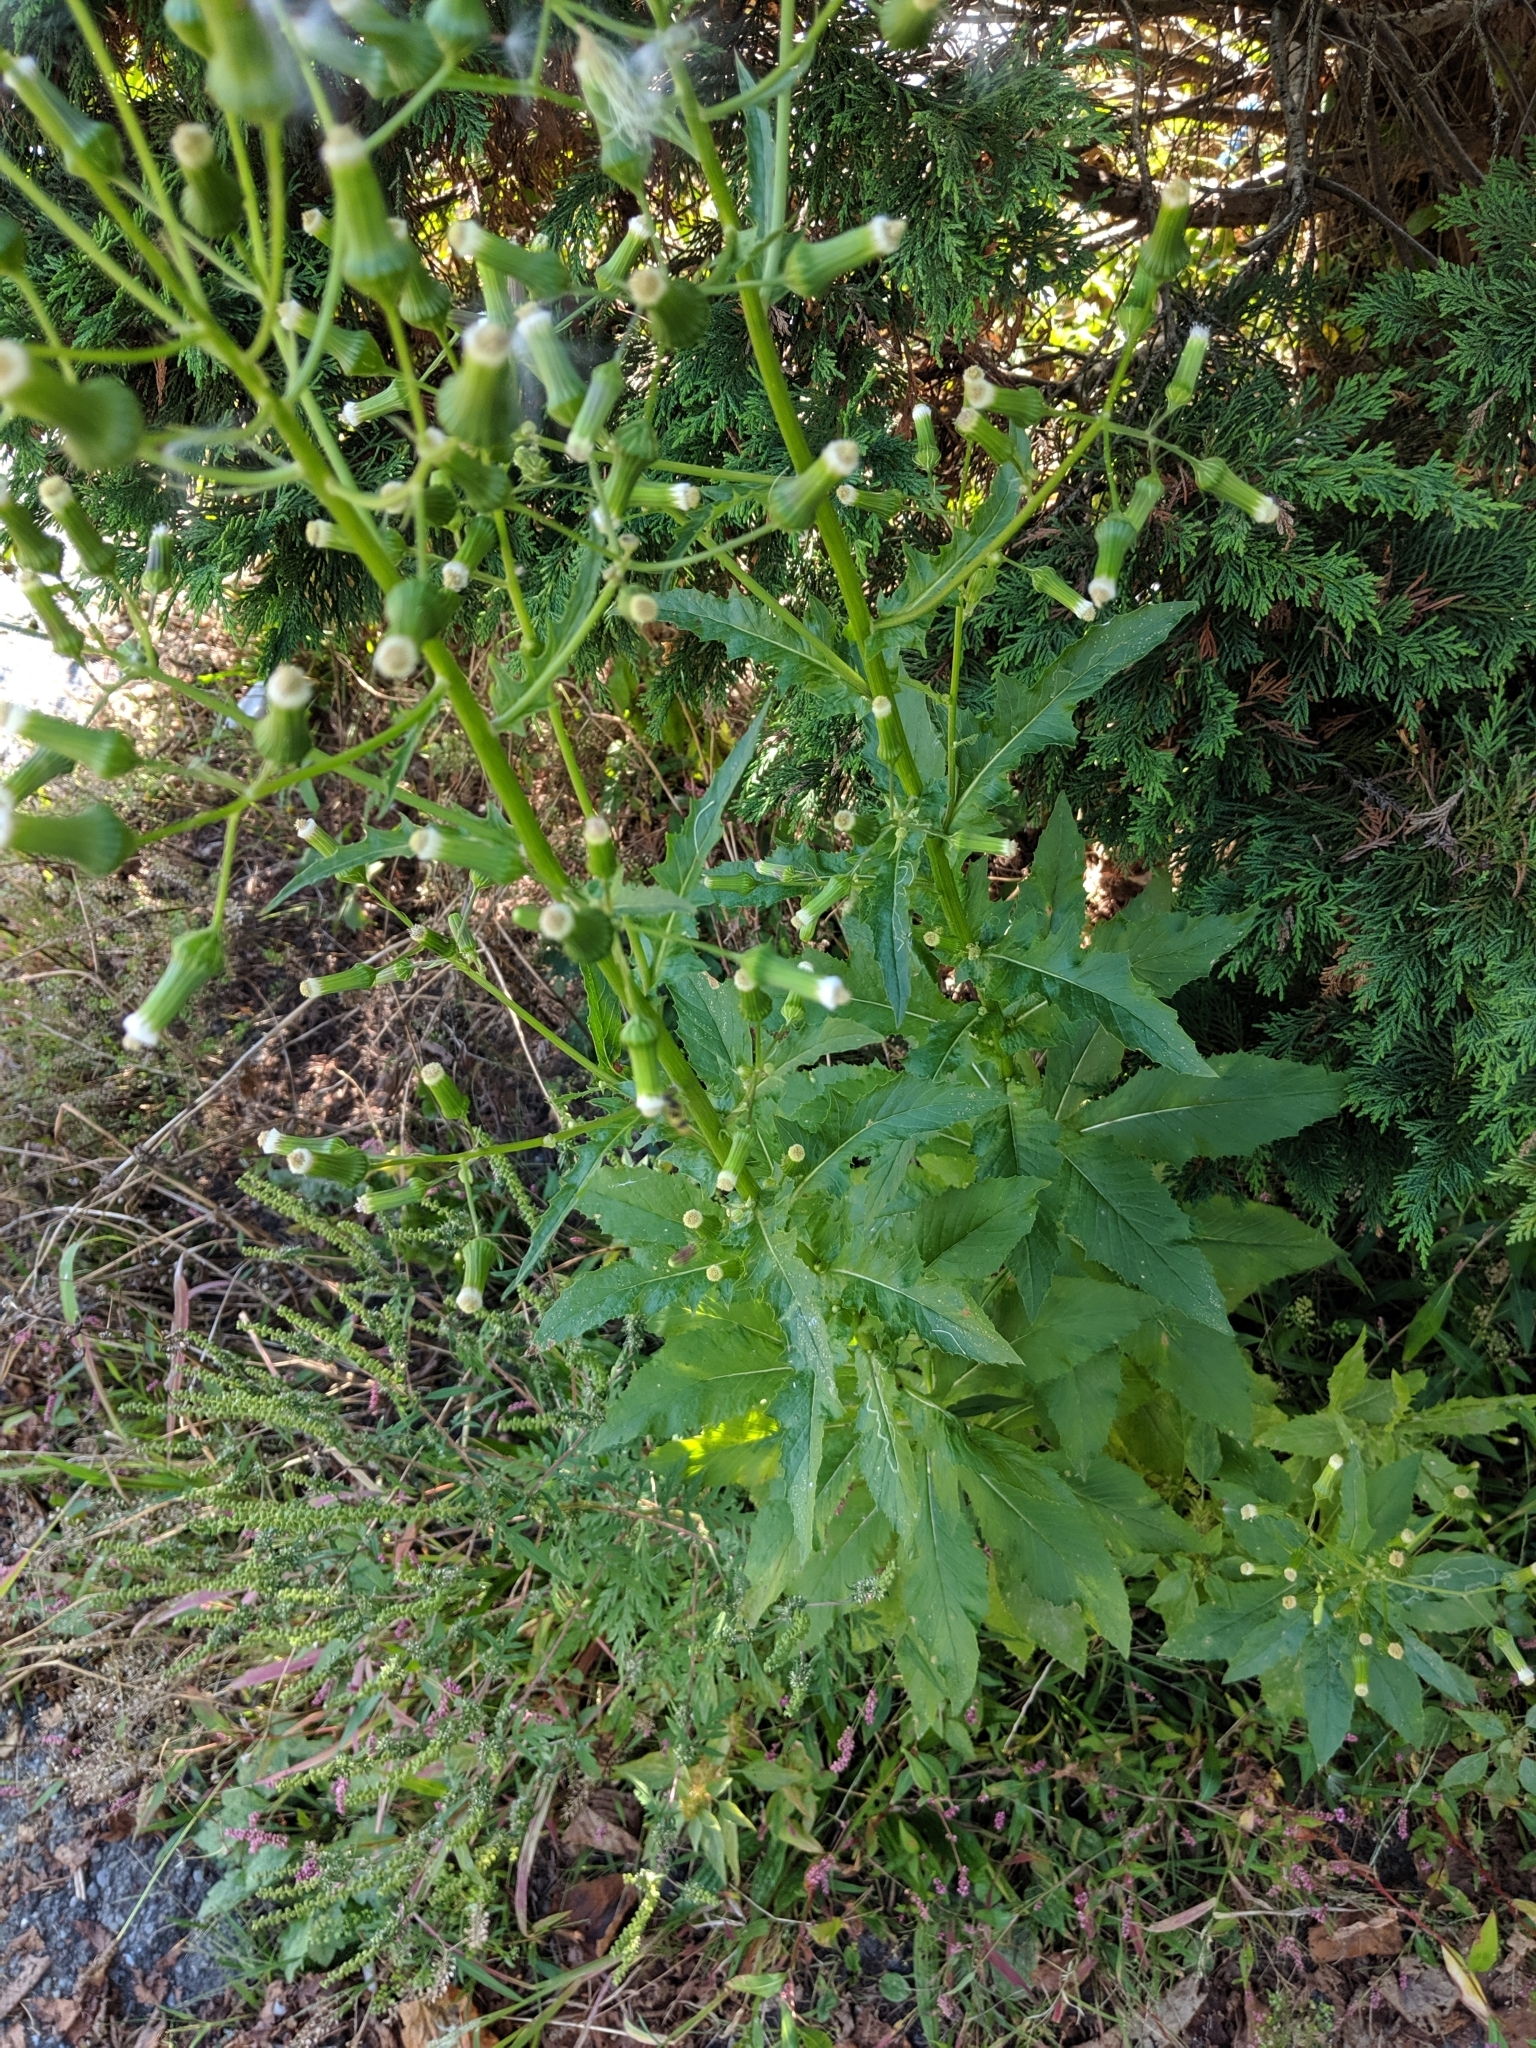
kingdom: Plantae
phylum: Tracheophyta
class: Magnoliopsida
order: Asterales
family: Asteraceae
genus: Erechtites
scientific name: Erechtites hieraciifolius
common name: American burnweed
